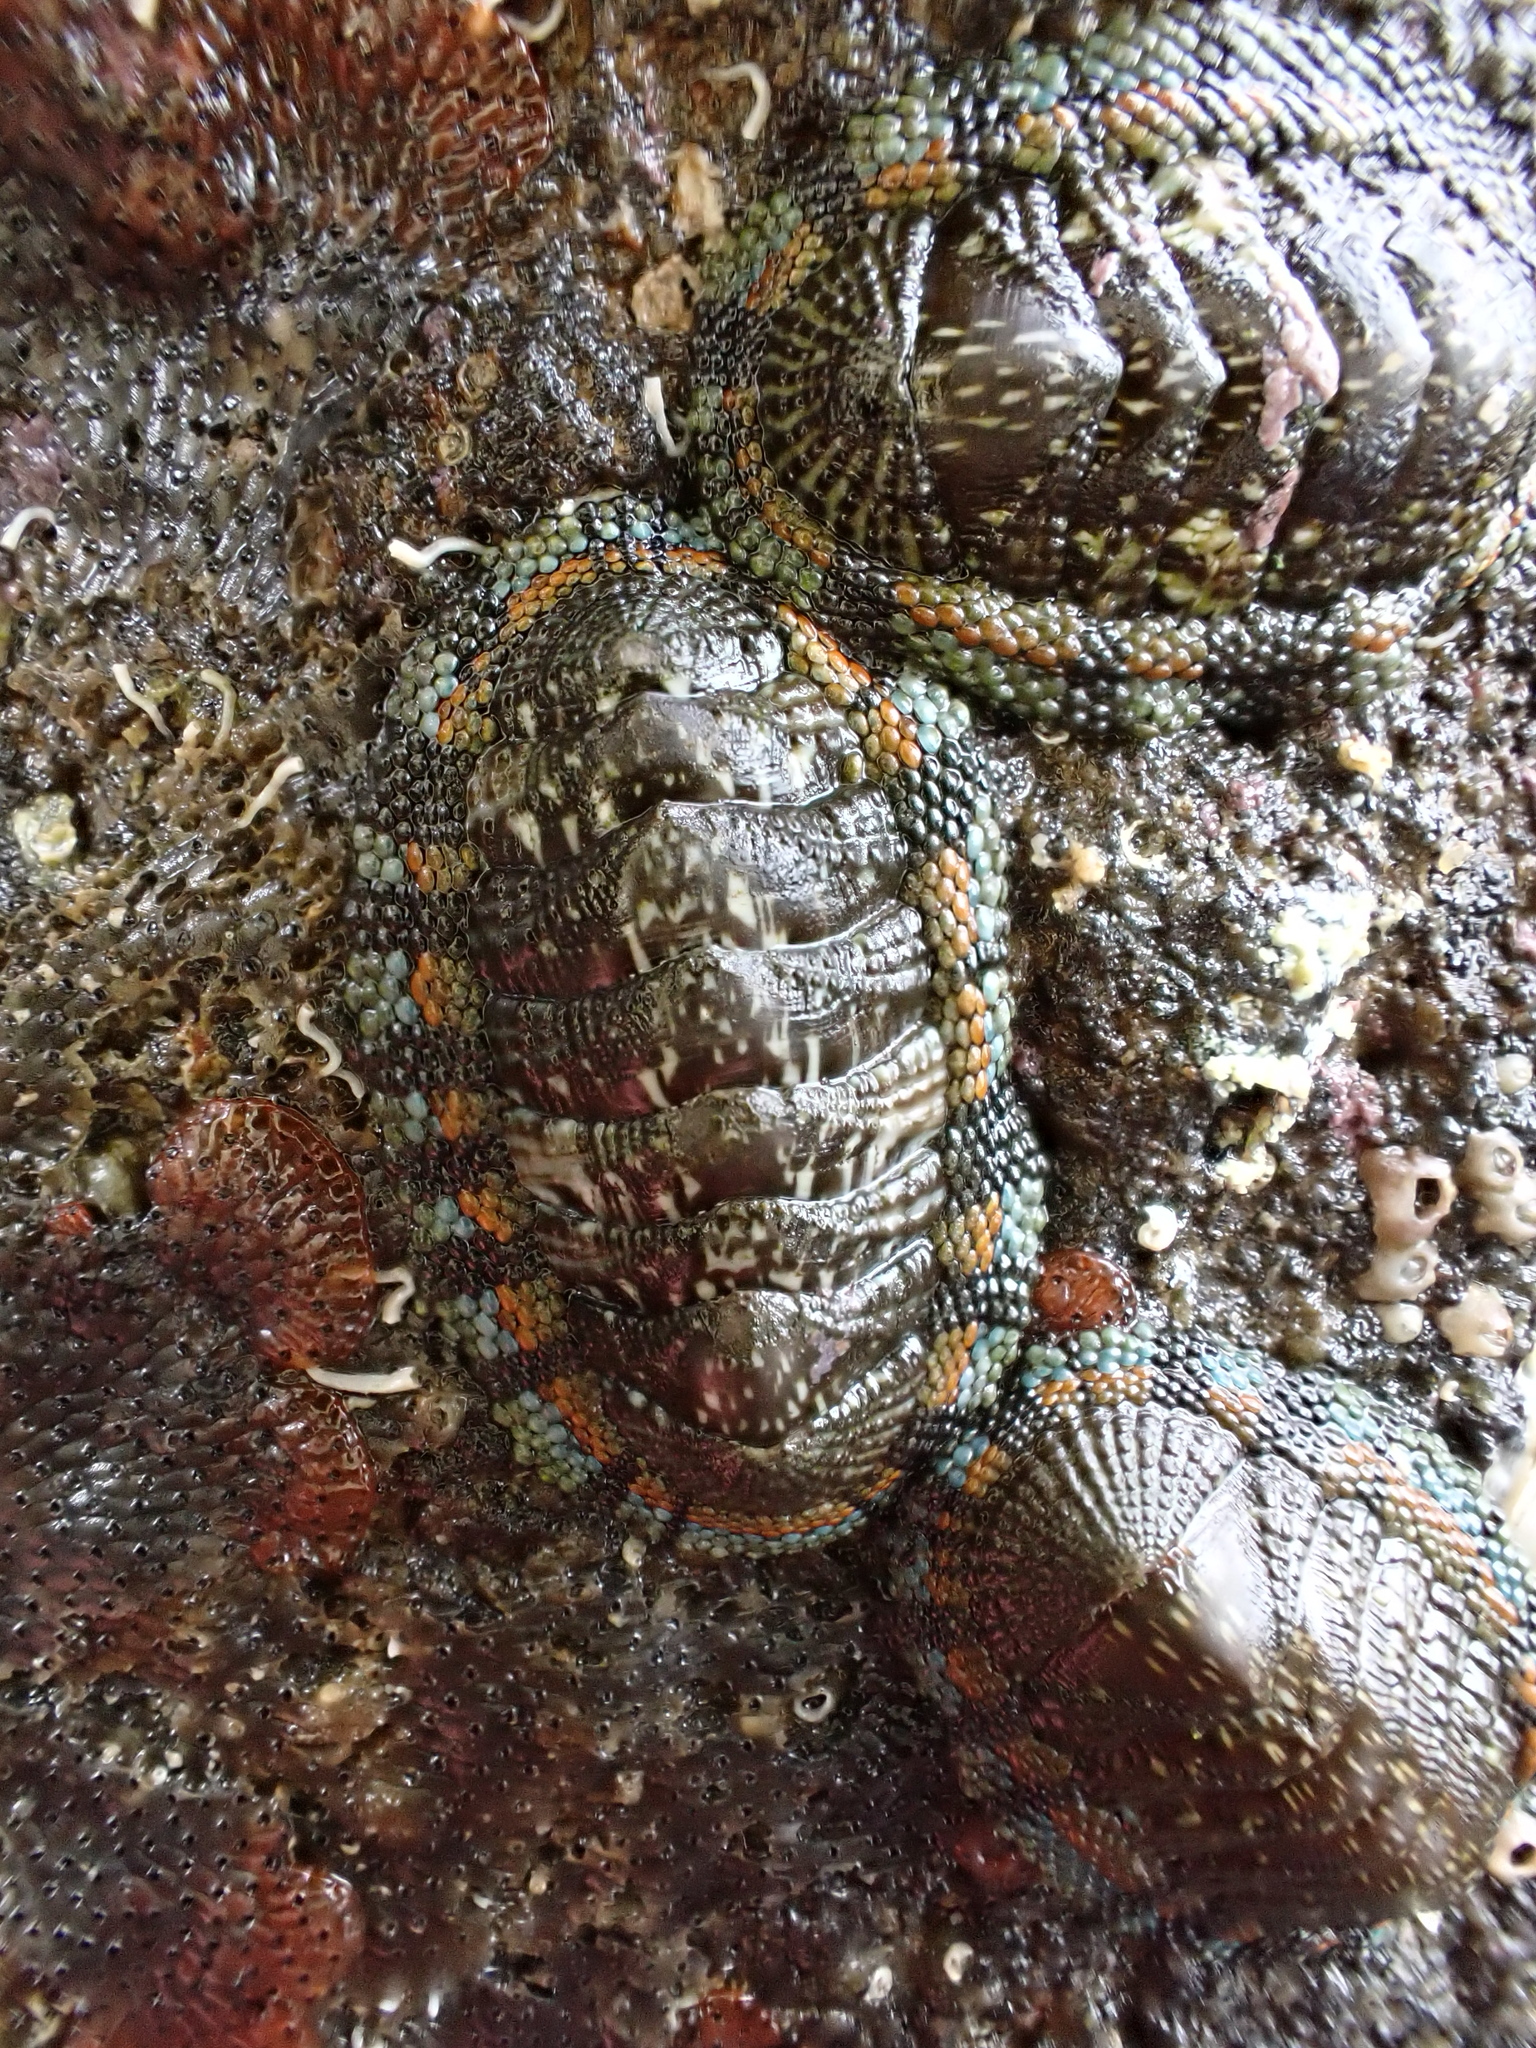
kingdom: Animalia
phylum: Mollusca
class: Polyplacophora
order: Chitonida
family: Chitonidae
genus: Sypharochiton
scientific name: Sypharochiton sinclairi
